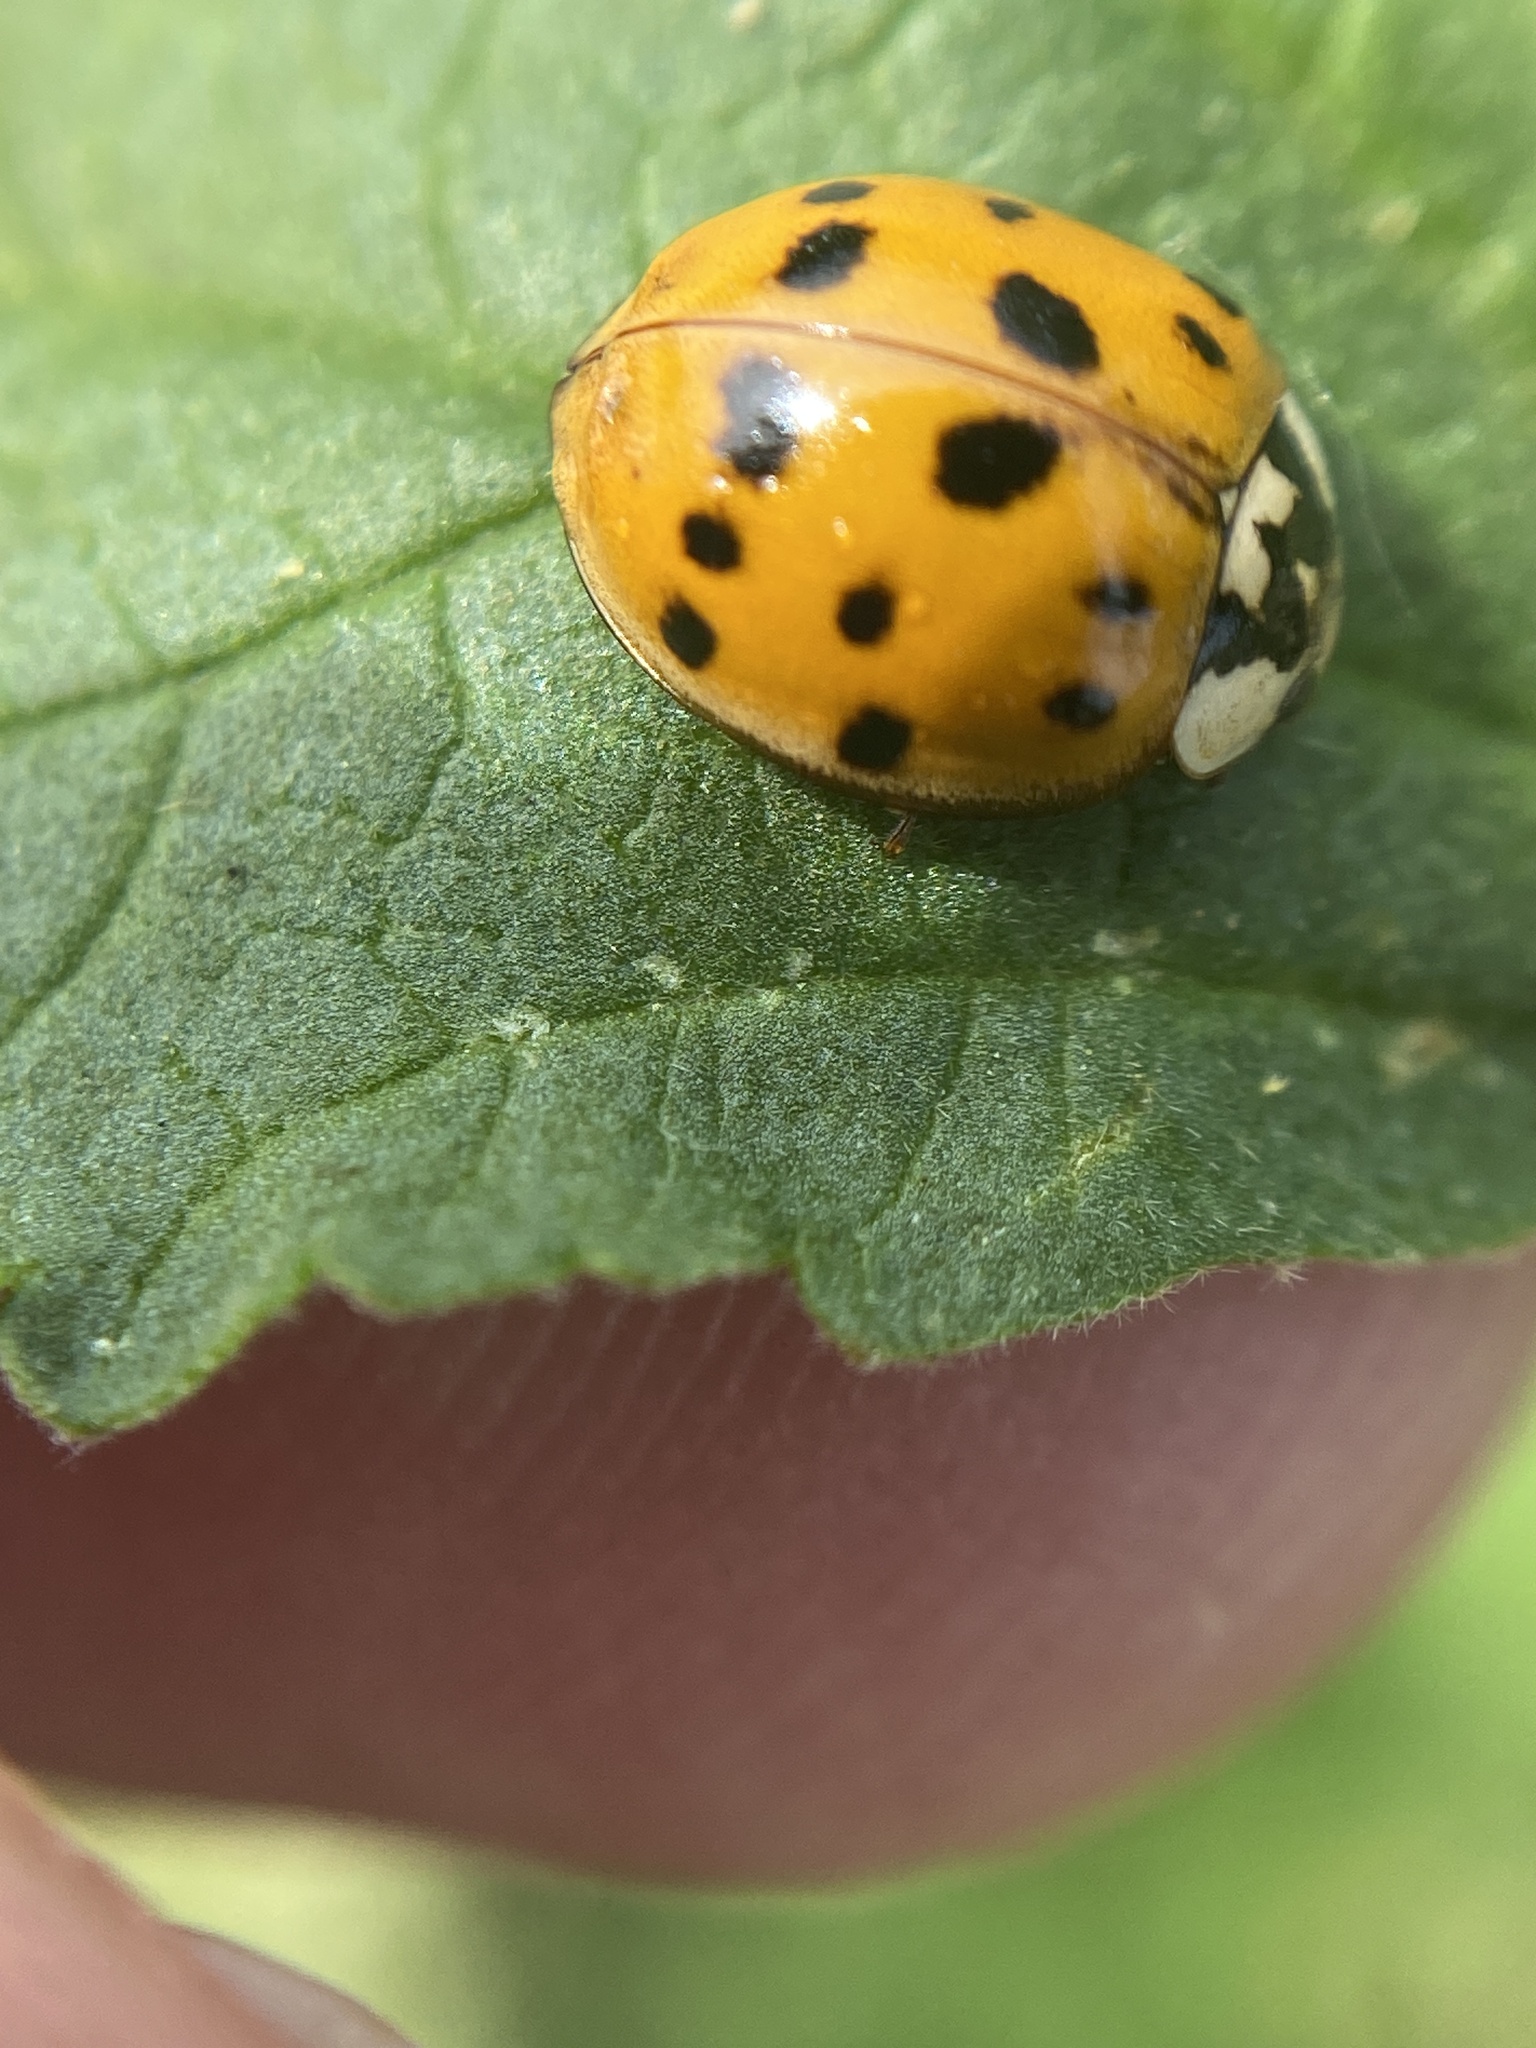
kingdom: Animalia
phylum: Arthropoda
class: Insecta
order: Coleoptera
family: Coccinellidae
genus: Harmonia
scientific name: Harmonia axyridis
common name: Harlequin ladybird
